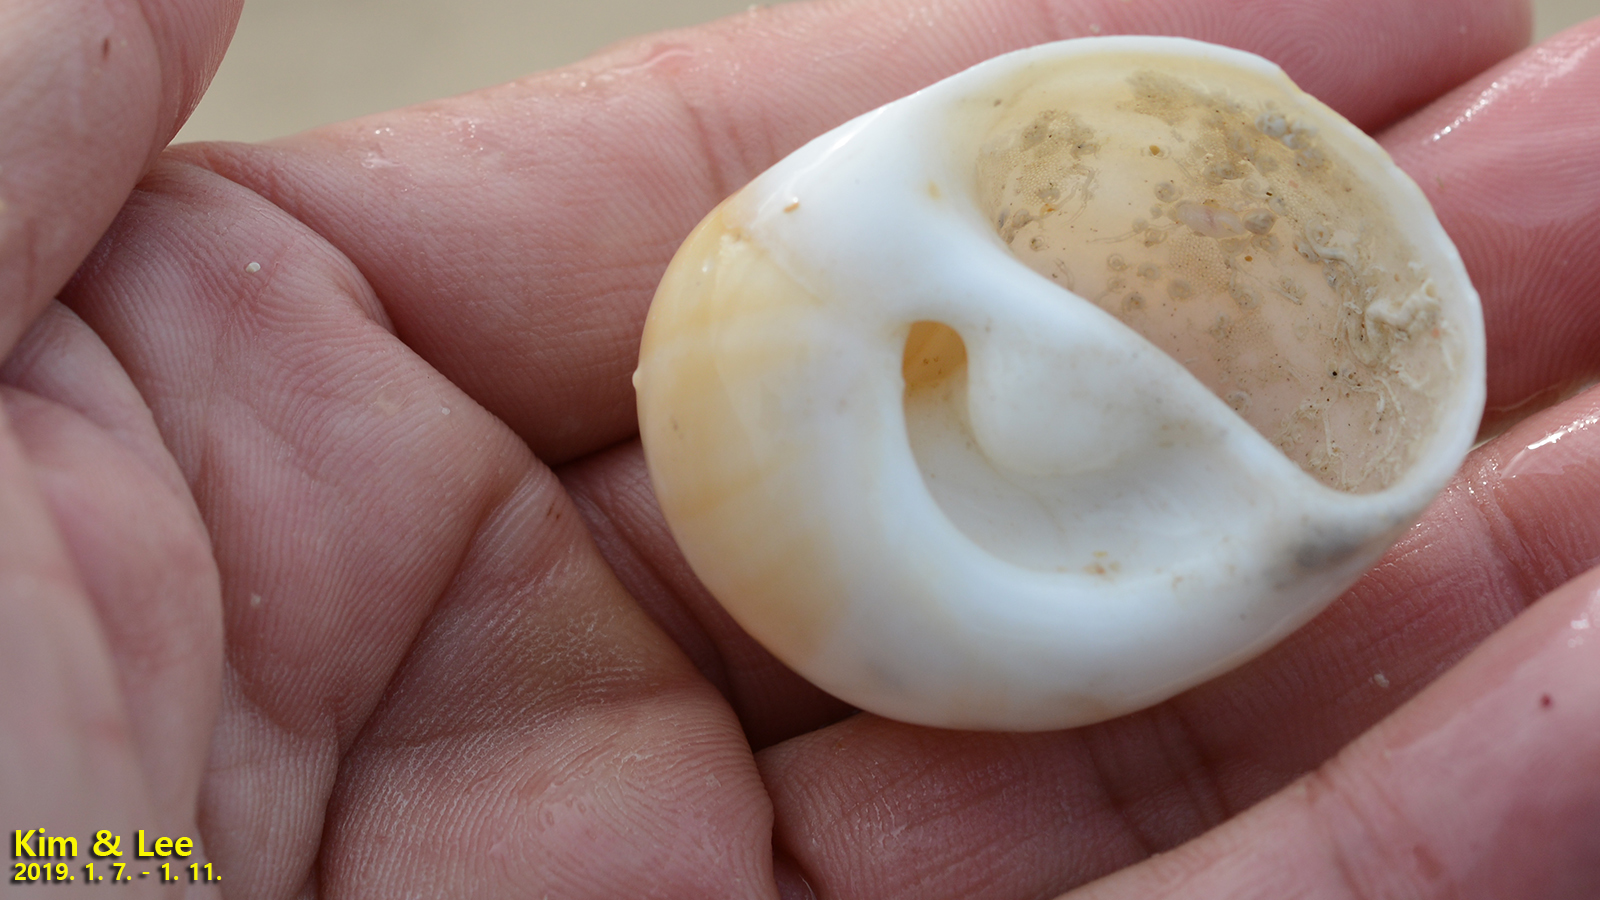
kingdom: Animalia
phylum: Mollusca
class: Gastropoda
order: Littorinimorpha
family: Naticidae
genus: Polinices
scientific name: Polinices sagamiensis
